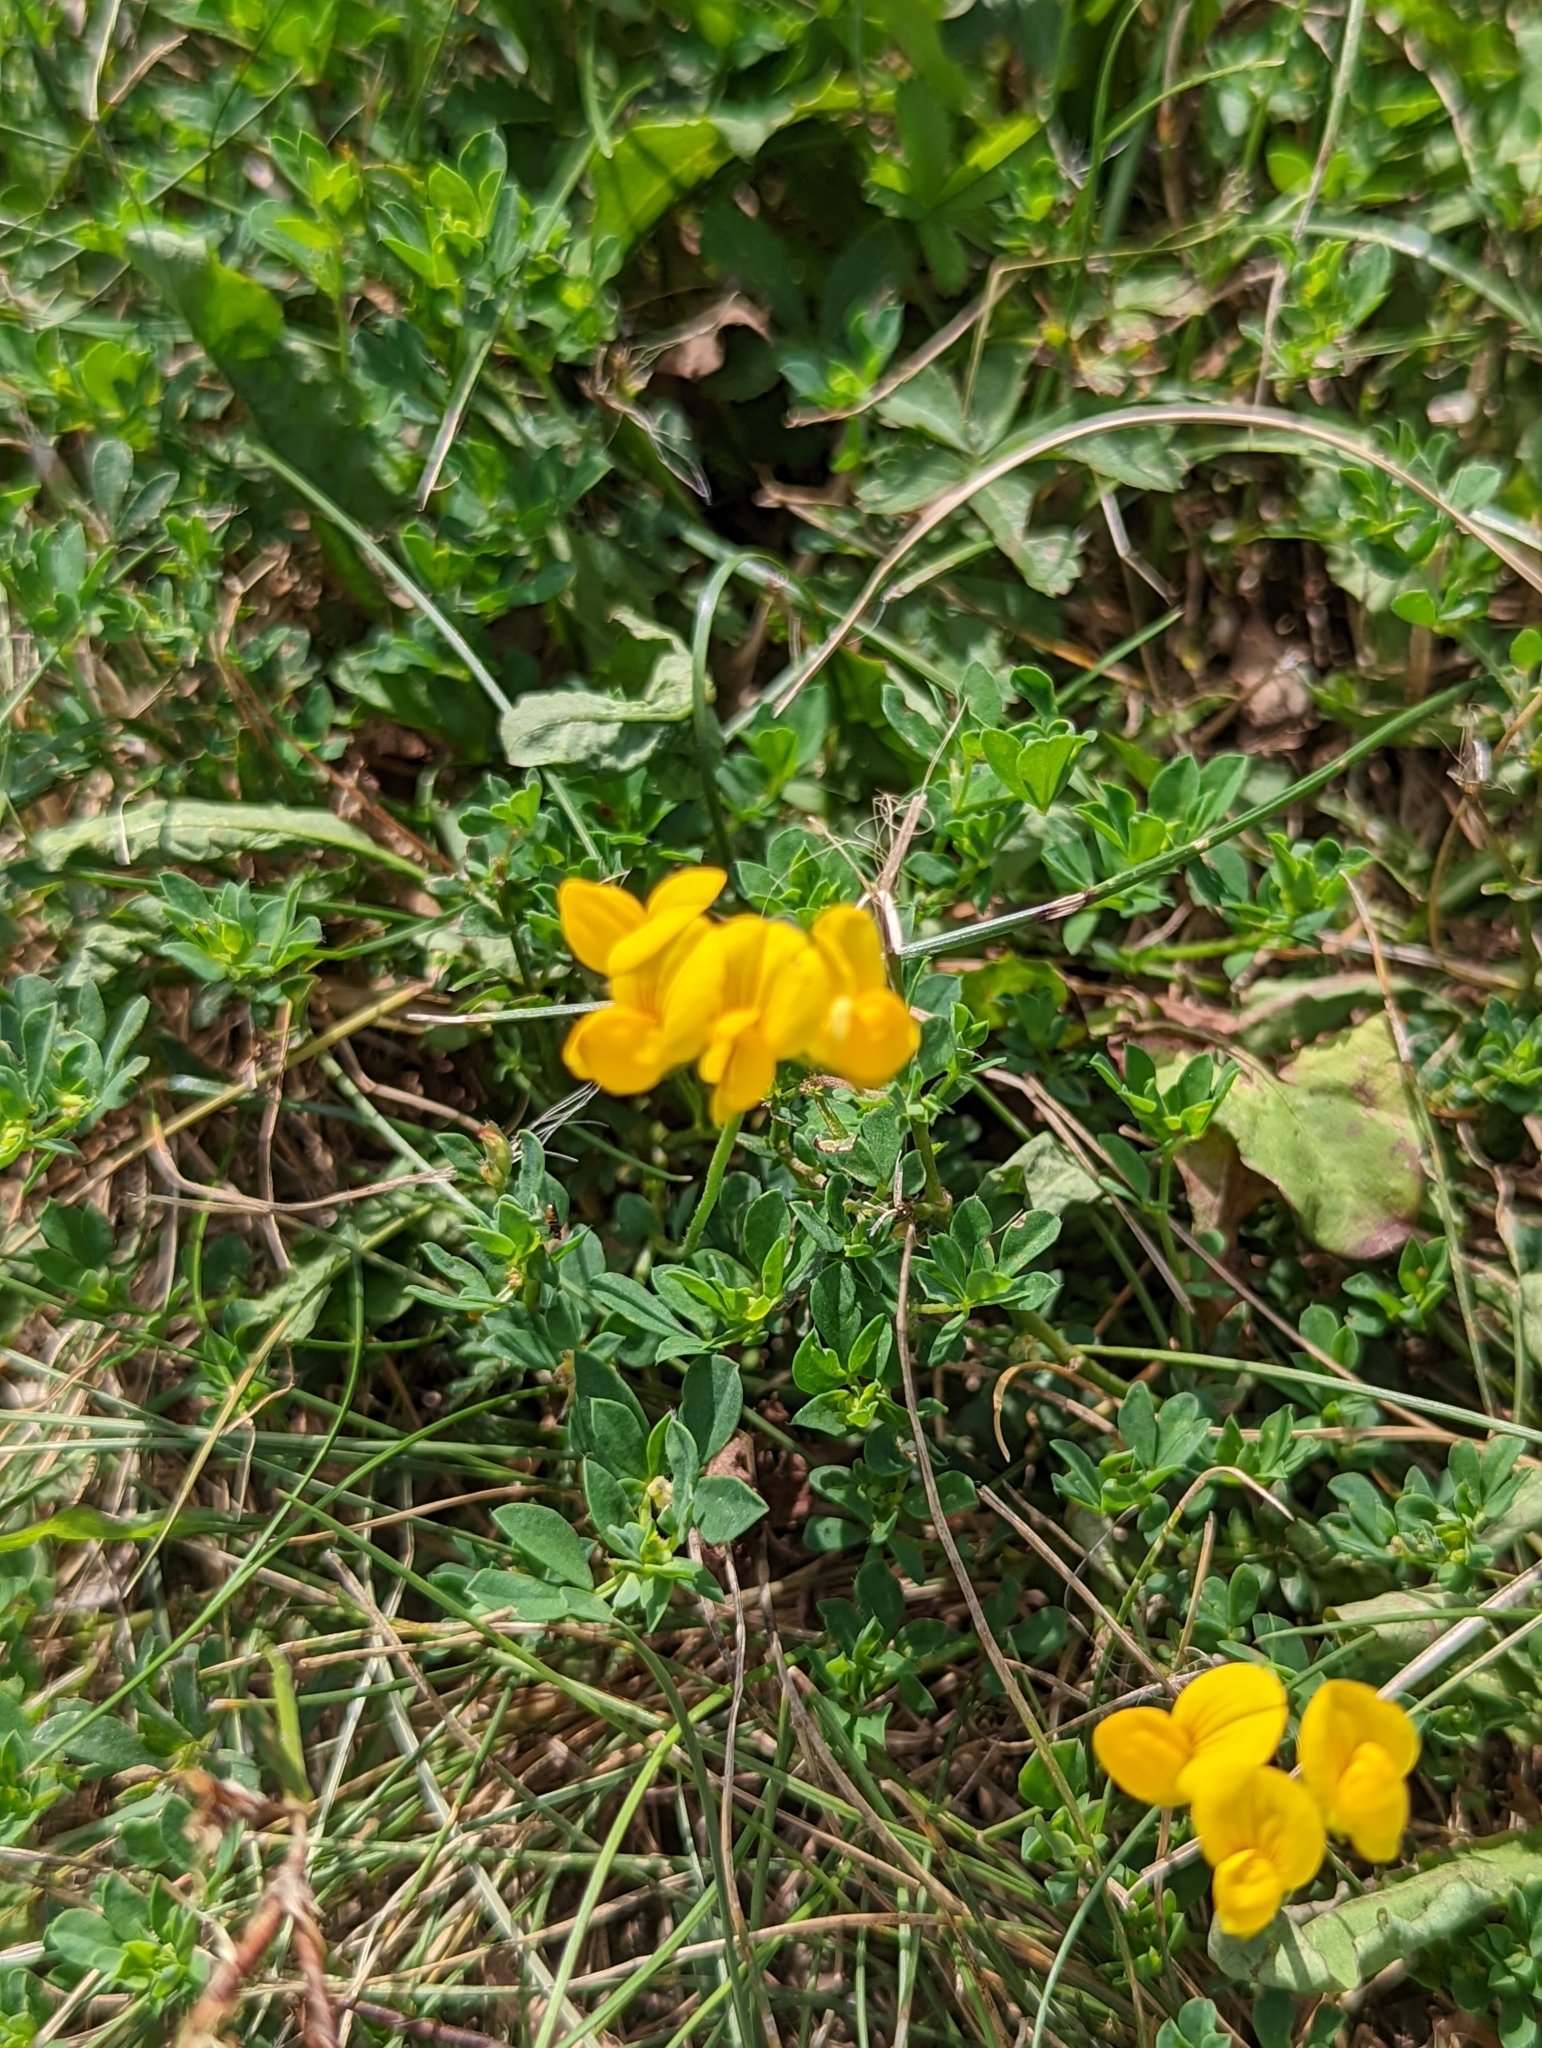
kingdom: Plantae
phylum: Tracheophyta
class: Magnoliopsida
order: Fabales
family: Fabaceae
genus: Lotus
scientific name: Lotus corniculatus
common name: Common bird's-foot-trefoil
